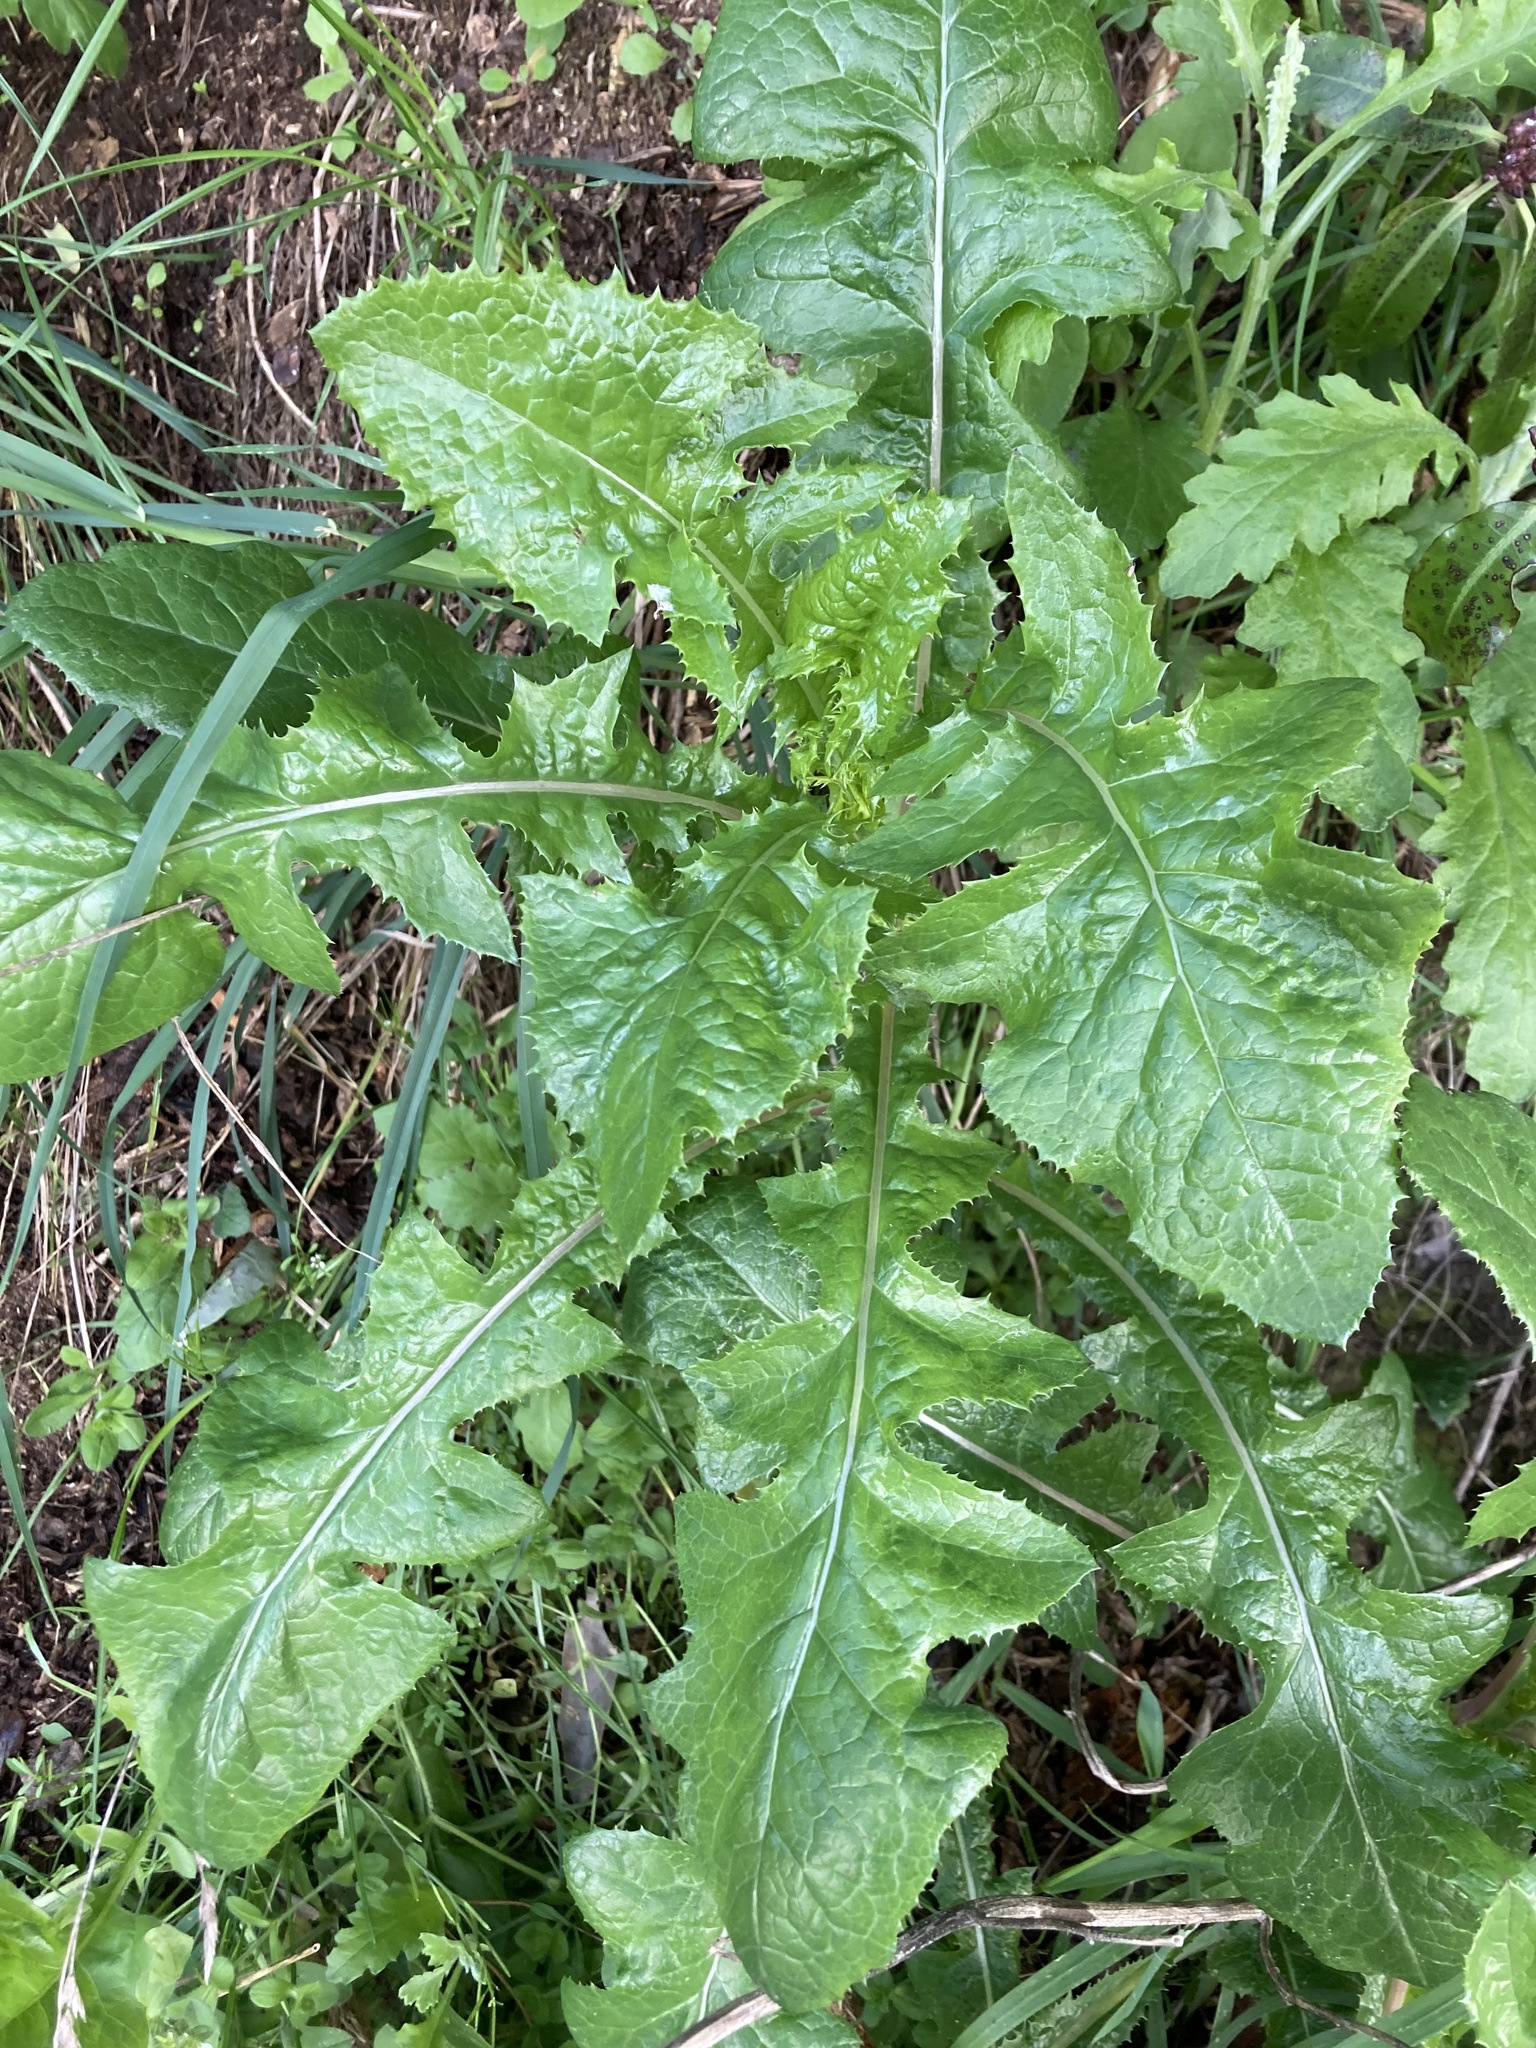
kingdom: Plantae
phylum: Tracheophyta
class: Magnoliopsida
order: Asterales
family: Asteraceae
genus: Sonchus
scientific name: Sonchus oleraceus
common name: Common sowthistle
